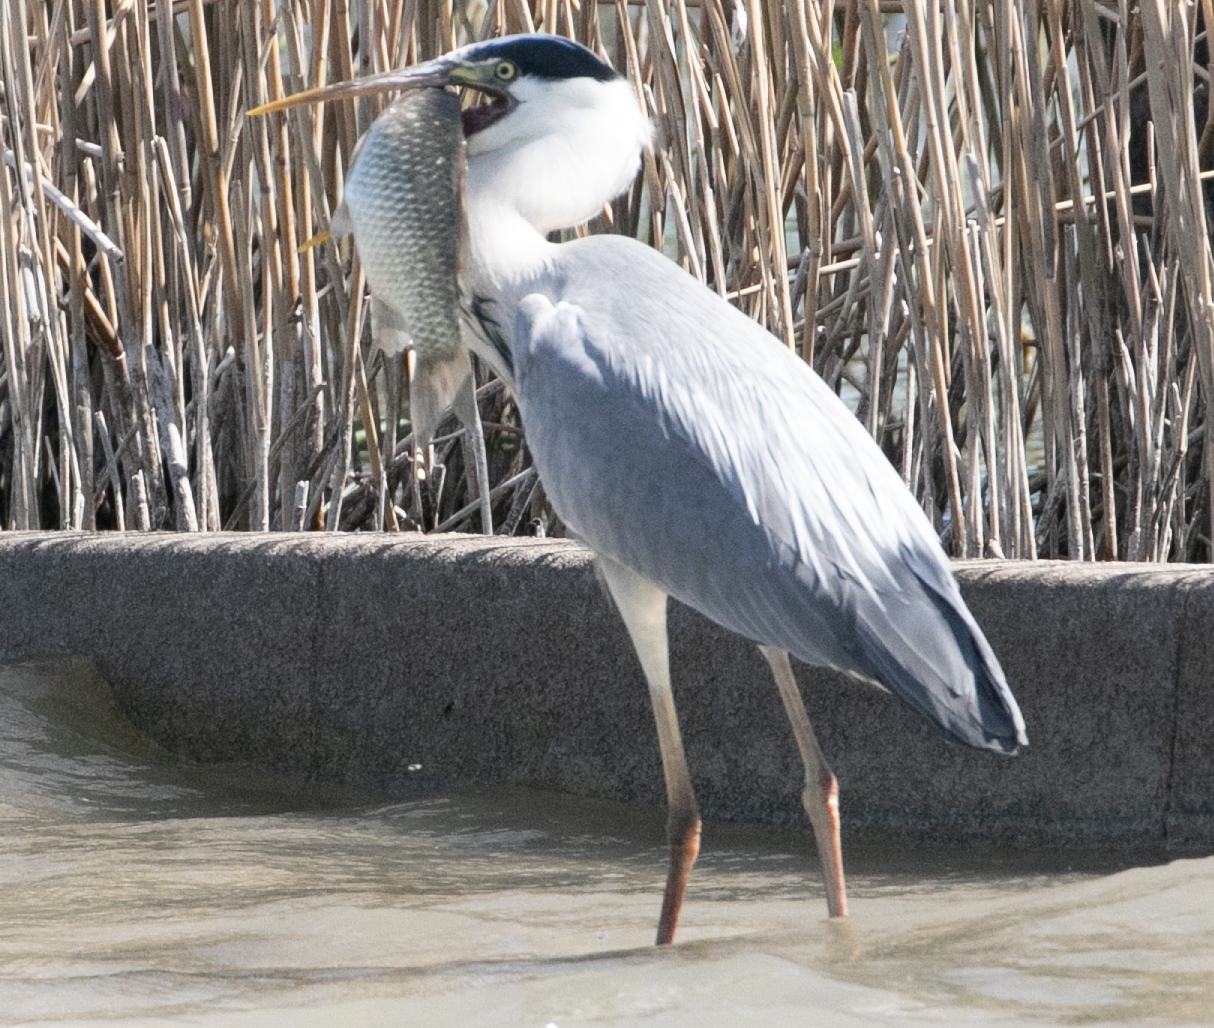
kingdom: Animalia
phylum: Chordata
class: Aves
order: Pelecaniformes
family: Ardeidae
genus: Ardea
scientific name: Ardea cinerea
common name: Grey heron
